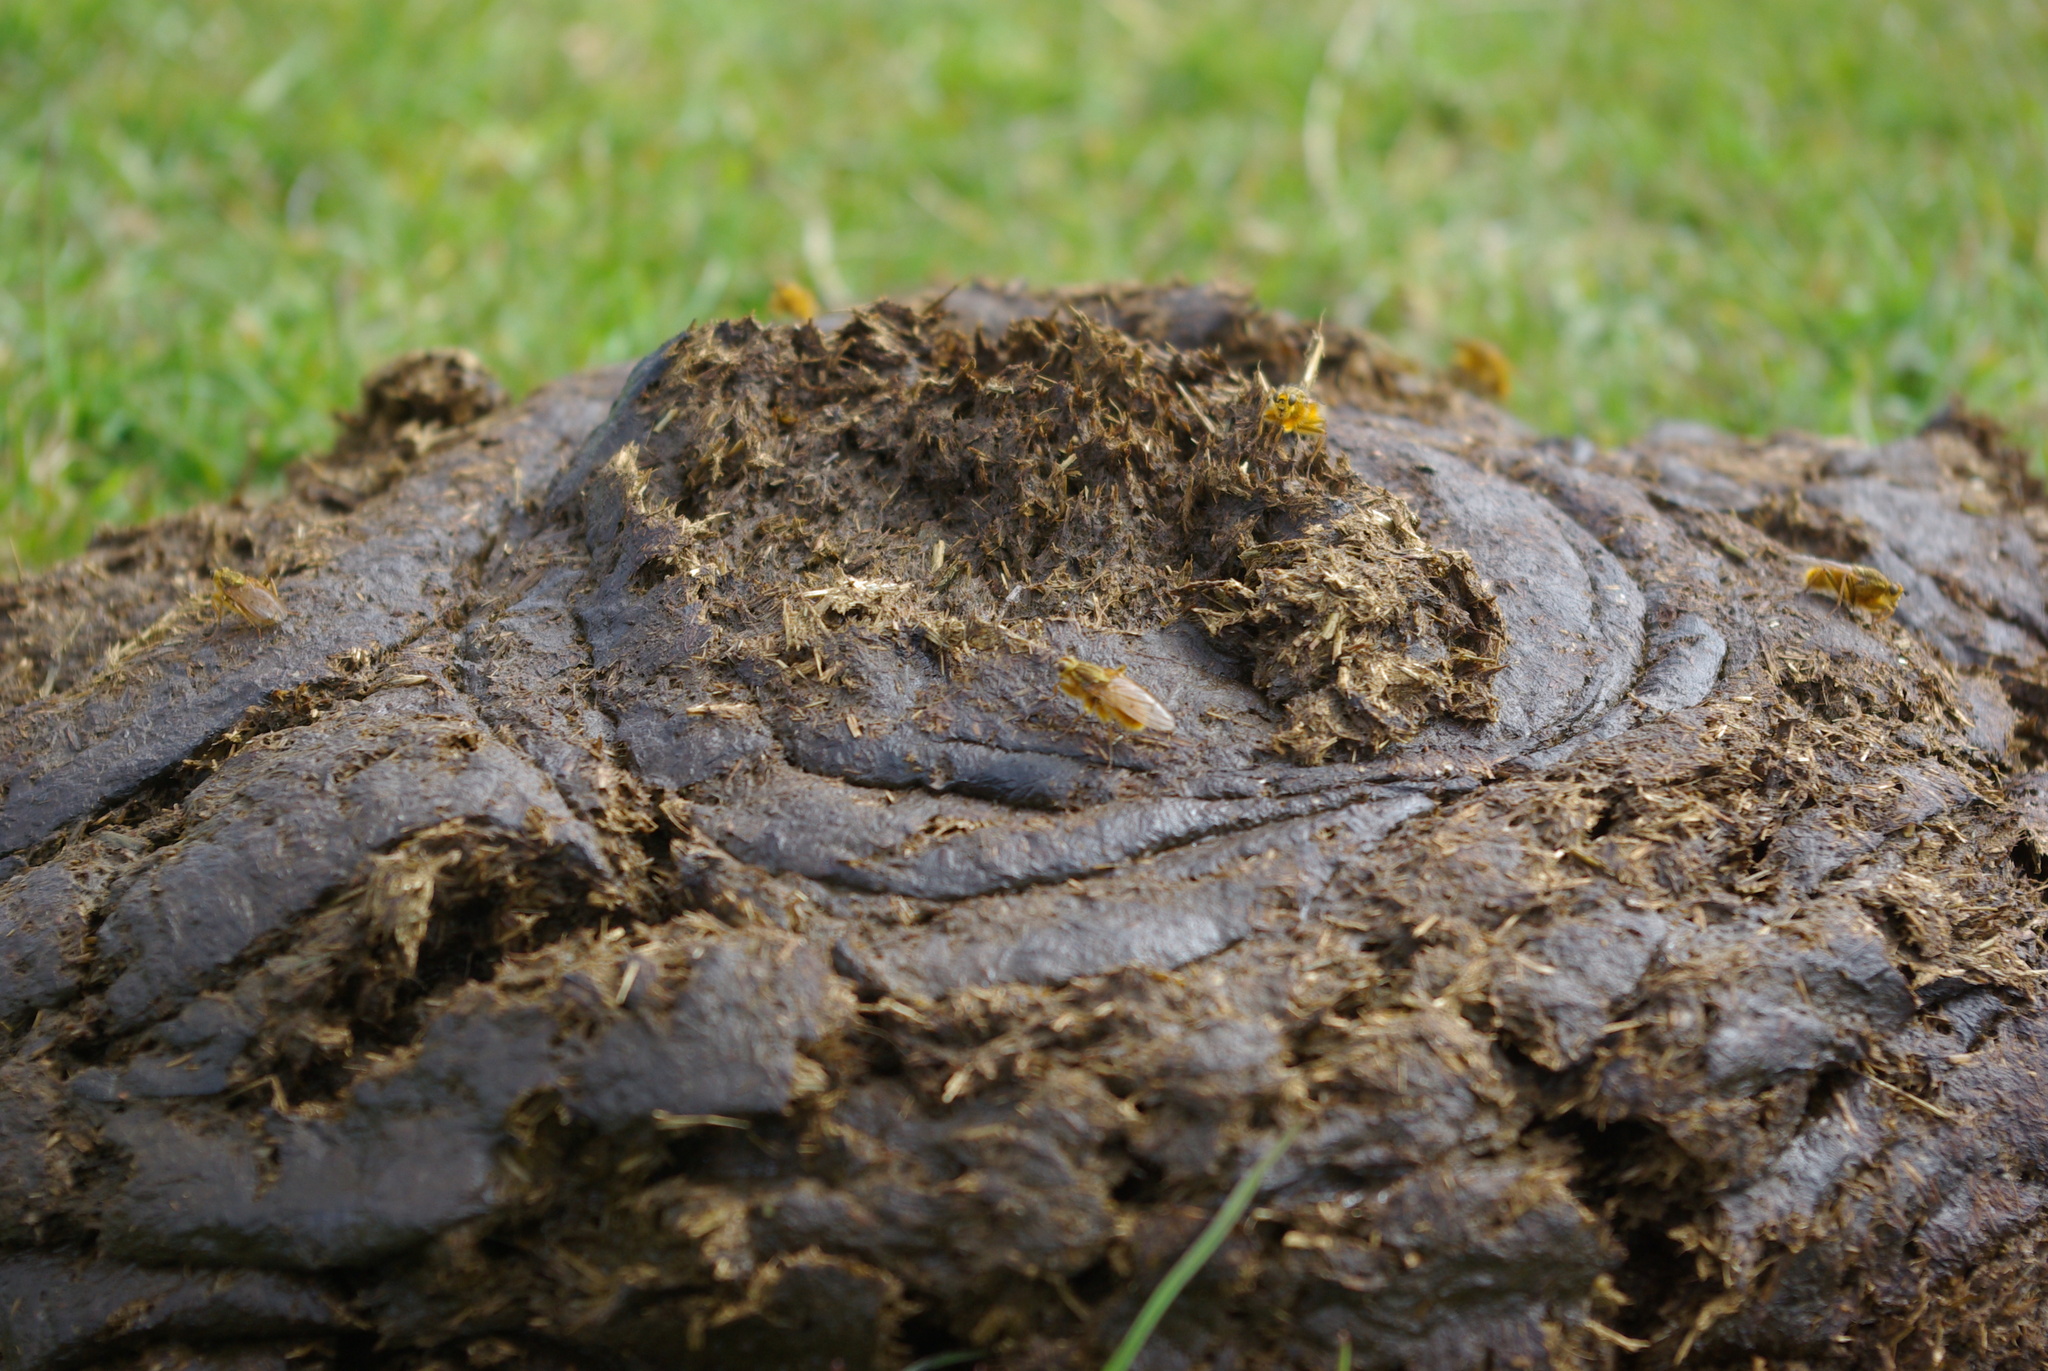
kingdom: Animalia
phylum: Arthropoda
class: Insecta
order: Diptera
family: Scathophagidae
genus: Scathophaga
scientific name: Scathophaga stercoraria
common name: Yellow dung fly
